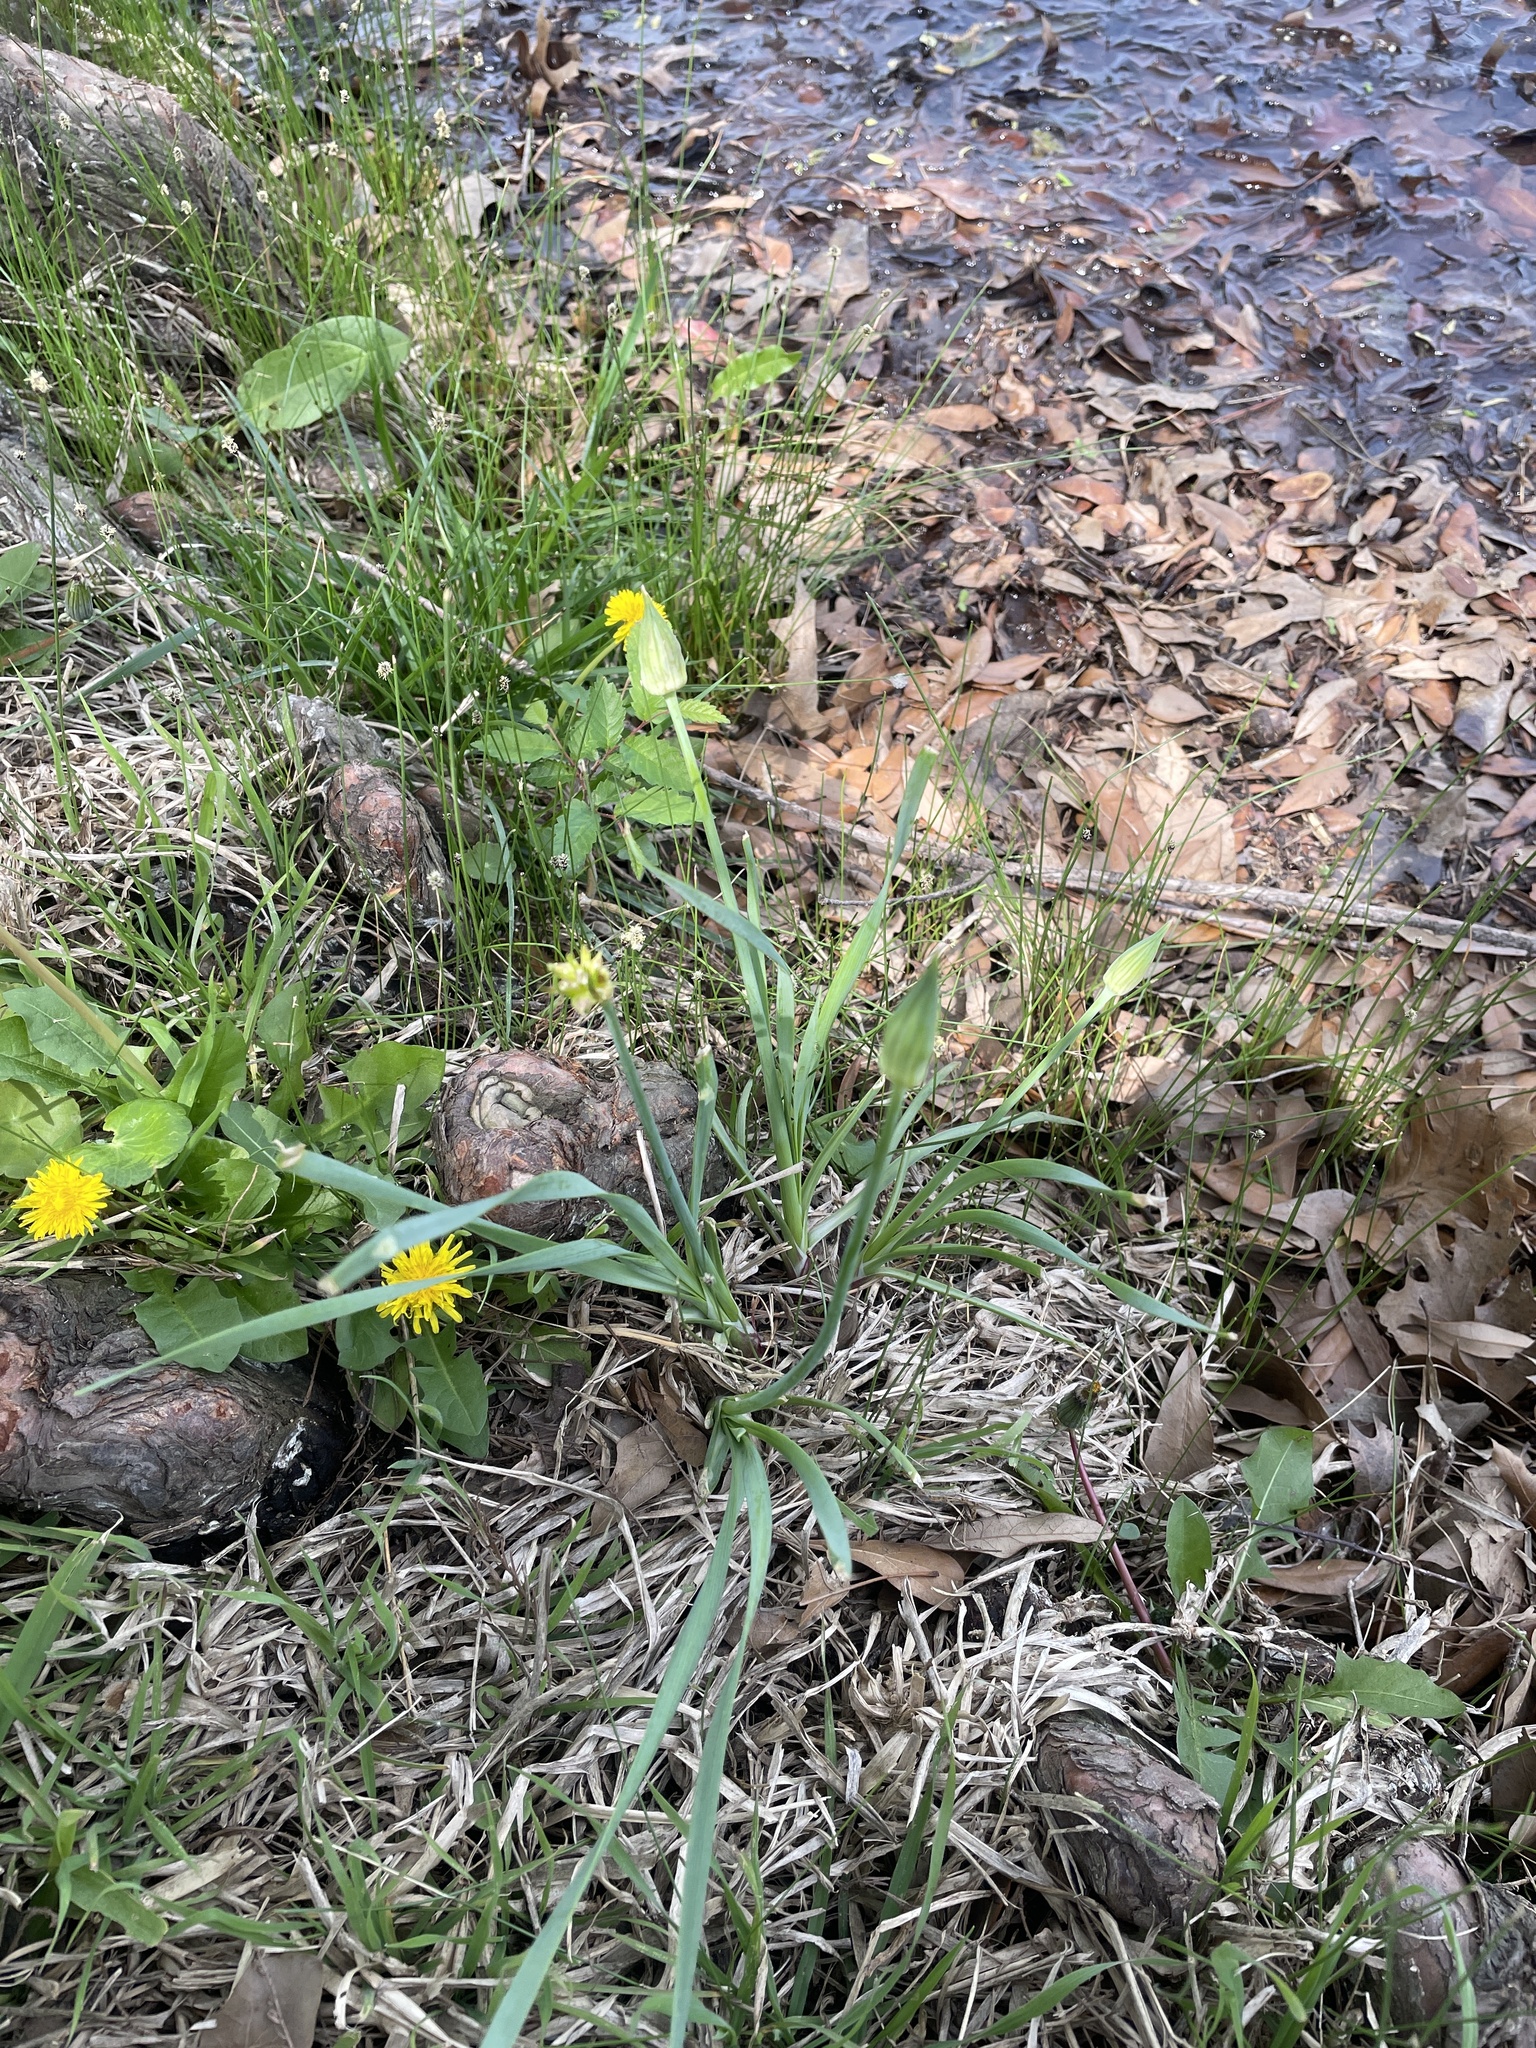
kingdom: Plantae
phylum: Tracheophyta
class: Liliopsida
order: Asparagales
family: Amaryllidaceae
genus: Allium
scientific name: Allium canadense
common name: Meadow garlic
